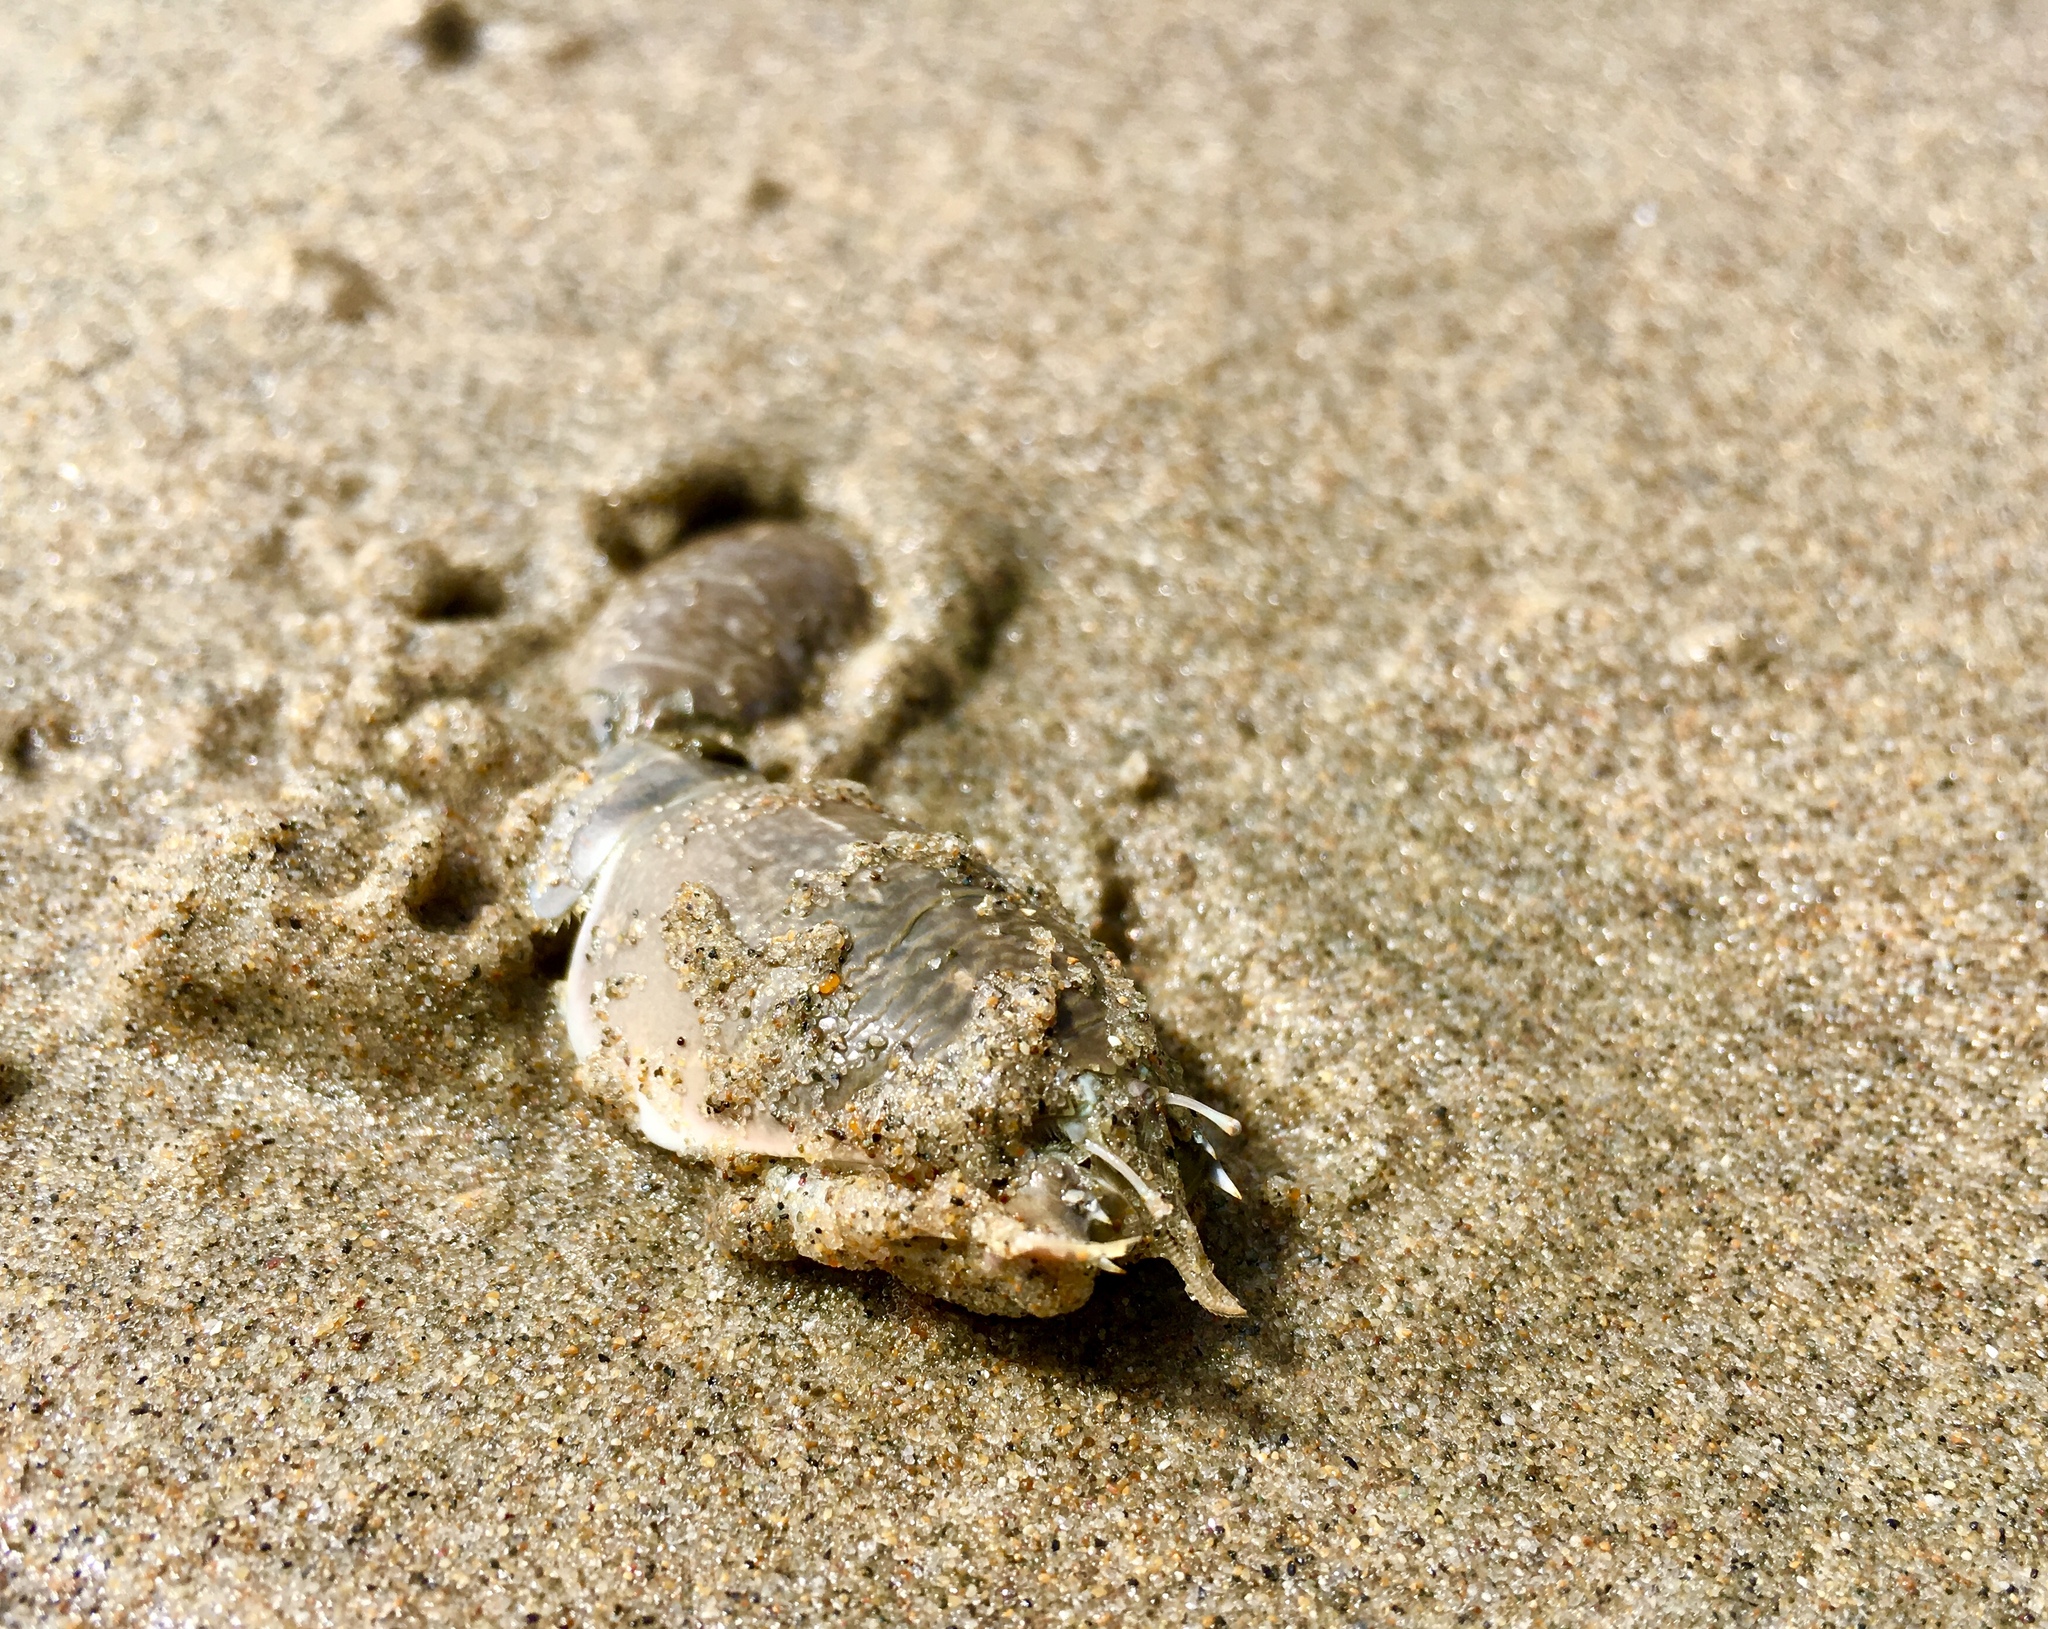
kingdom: Animalia
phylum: Arthropoda
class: Malacostraca
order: Decapoda
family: Hippidae
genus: Emerita
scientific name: Emerita analoga
